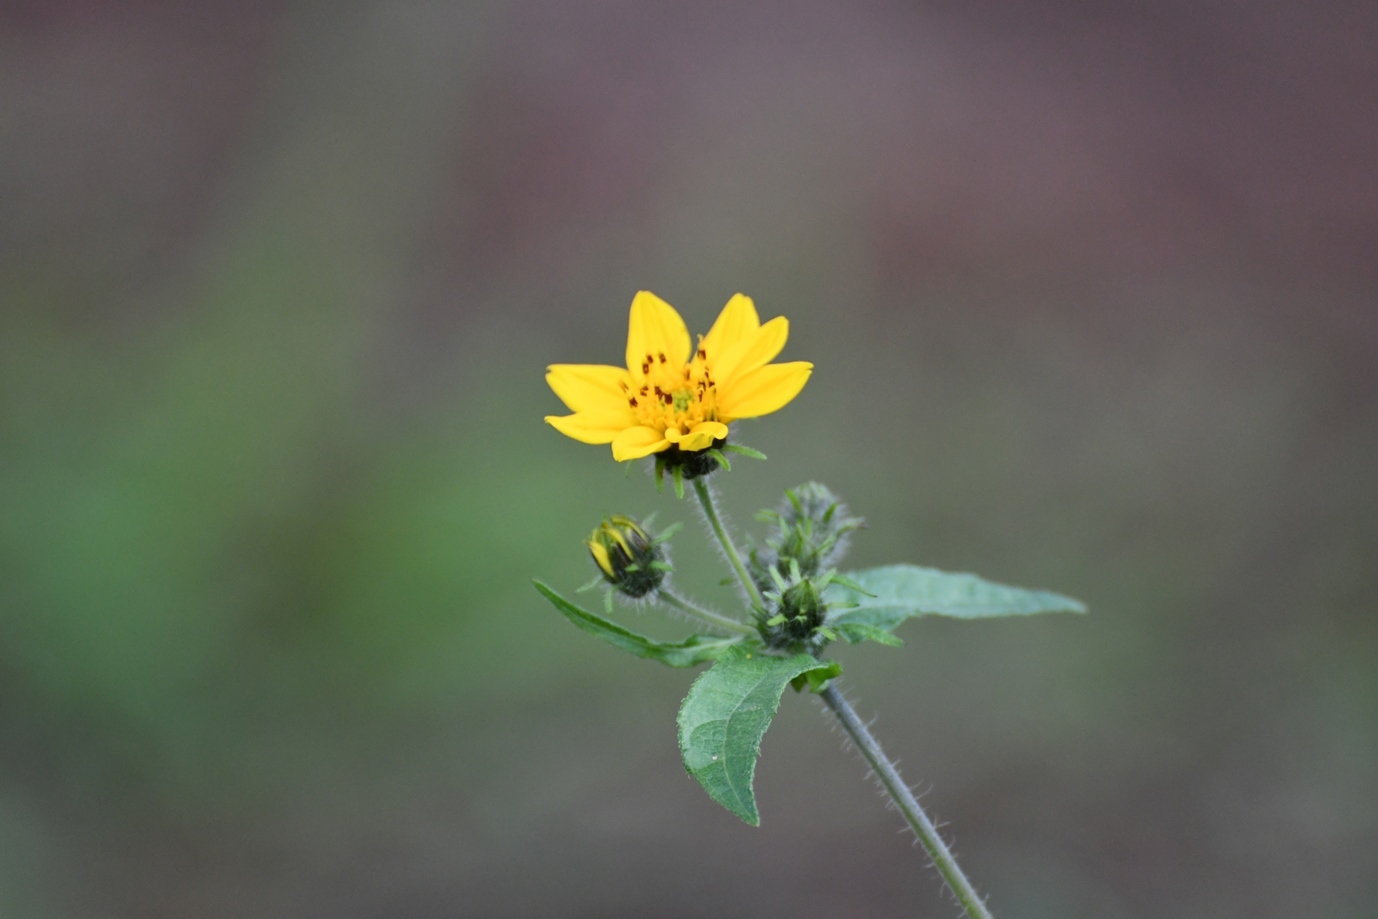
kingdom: Plantae
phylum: Tracheophyta
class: Magnoliopsida
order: Asterales
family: Asteraceae
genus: Simsia
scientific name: Simsia amplexicaulis
